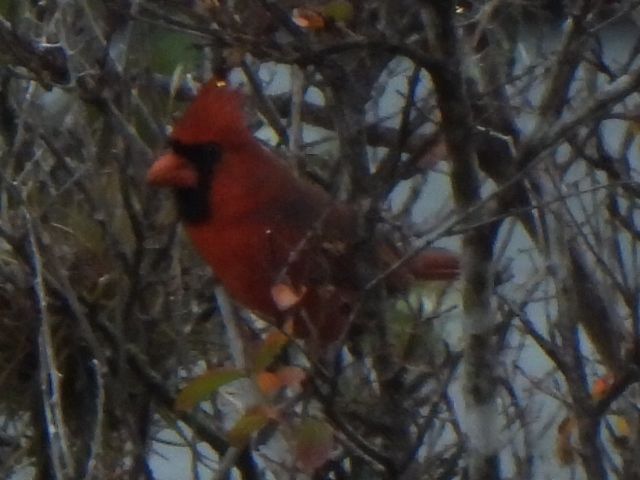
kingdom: Animalia
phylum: Chordata
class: Aves
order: Passeriformes
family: Cardinalidae
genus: Cardinalis
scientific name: Cardinalis cardinalis
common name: Northern cardinal
